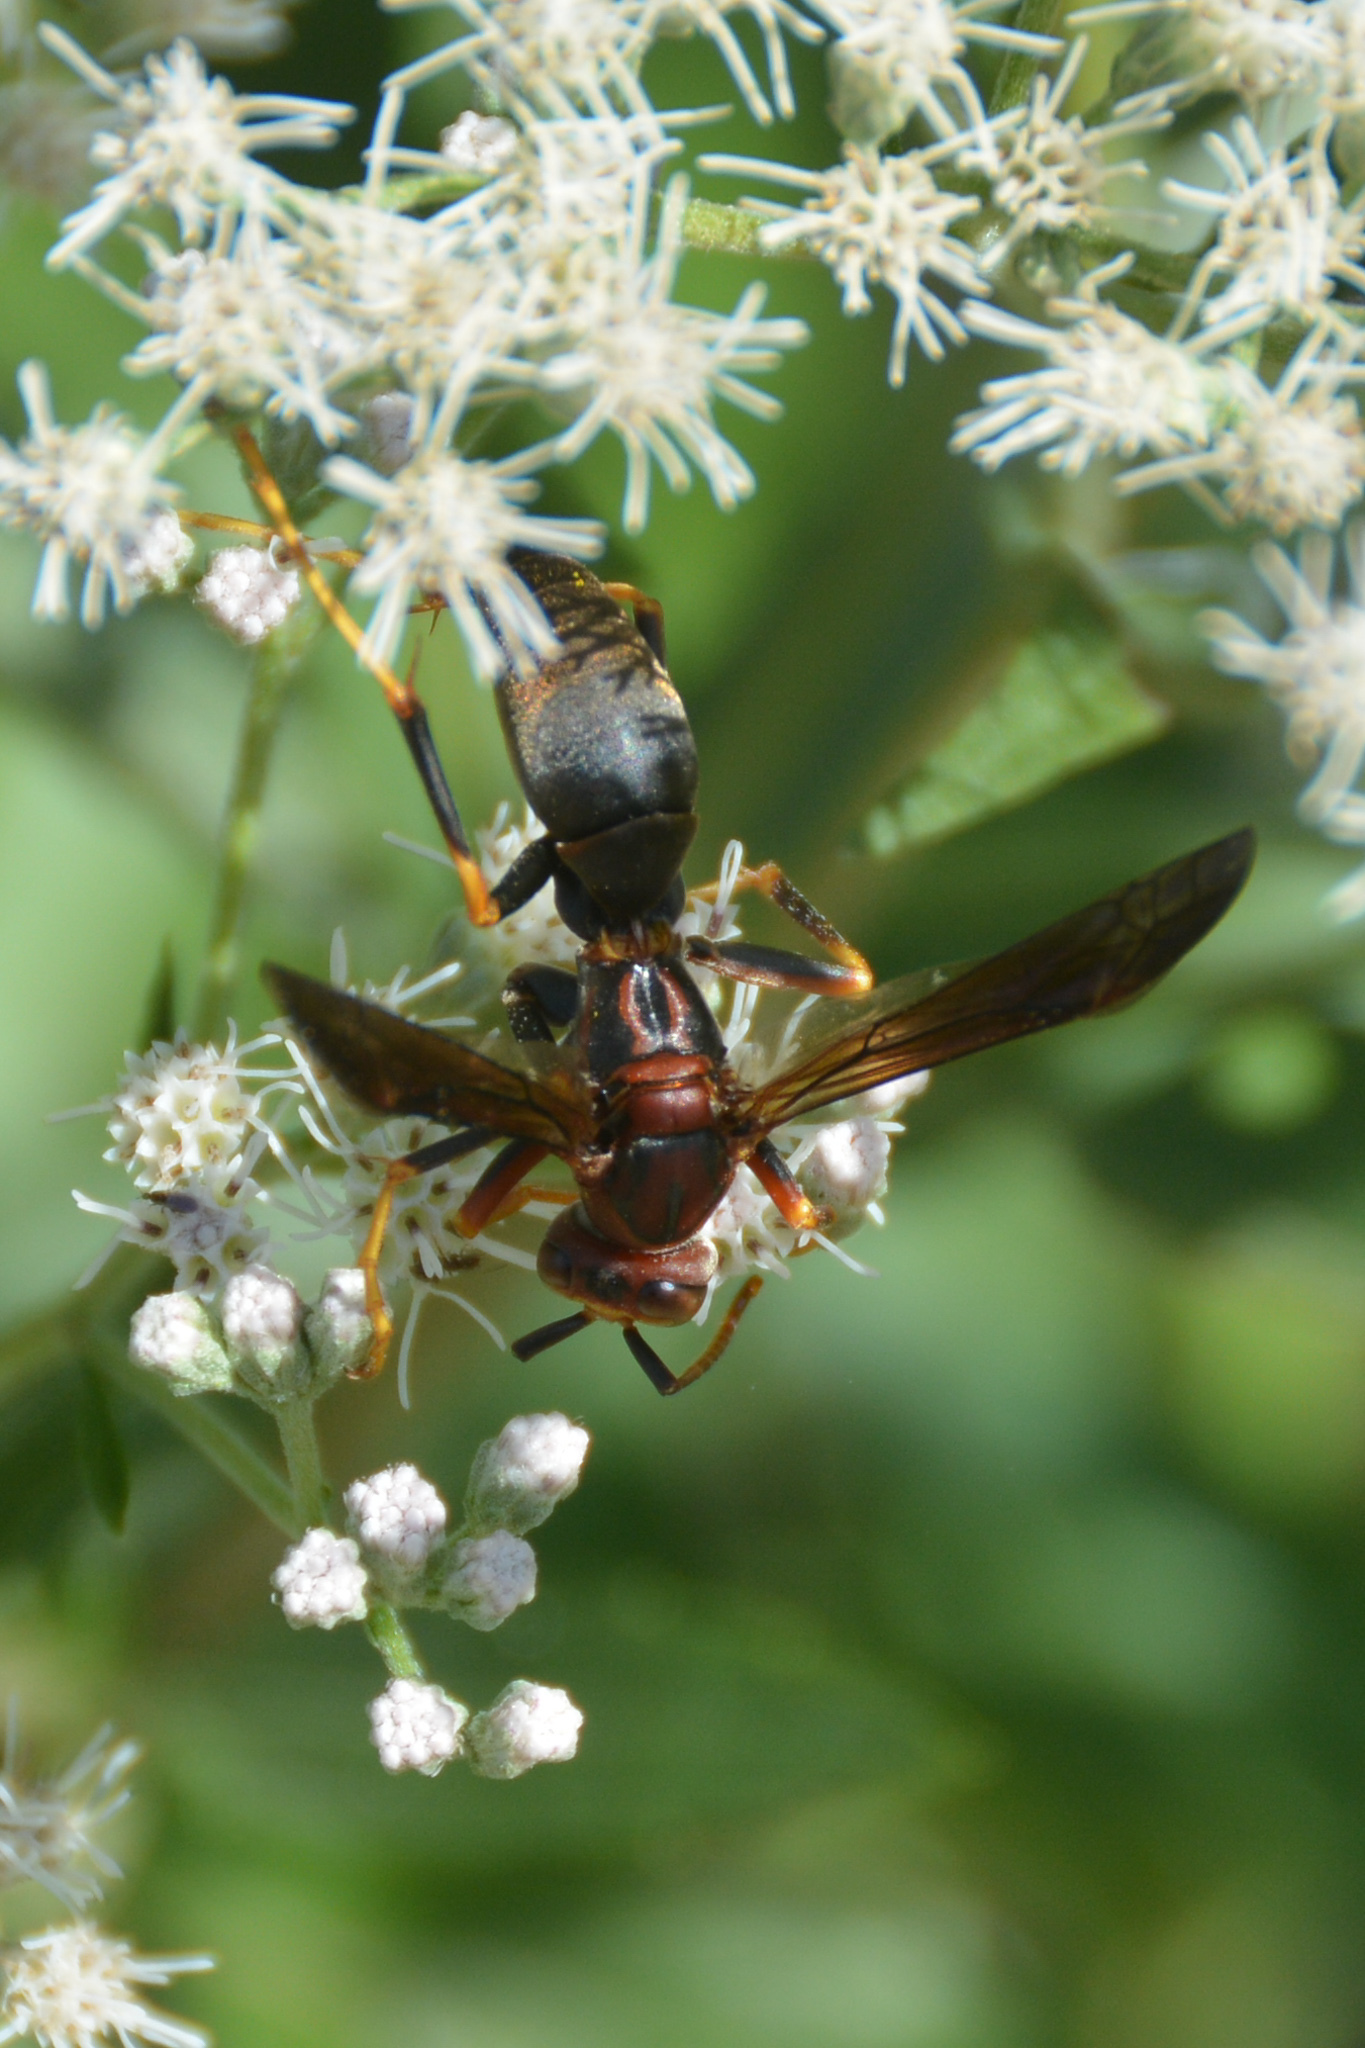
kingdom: Animalia
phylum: Arthropoda
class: Insecta
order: Hymenoptera
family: Eumenidae
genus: Polistes
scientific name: Polistes metricus
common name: Metric paper wasp
